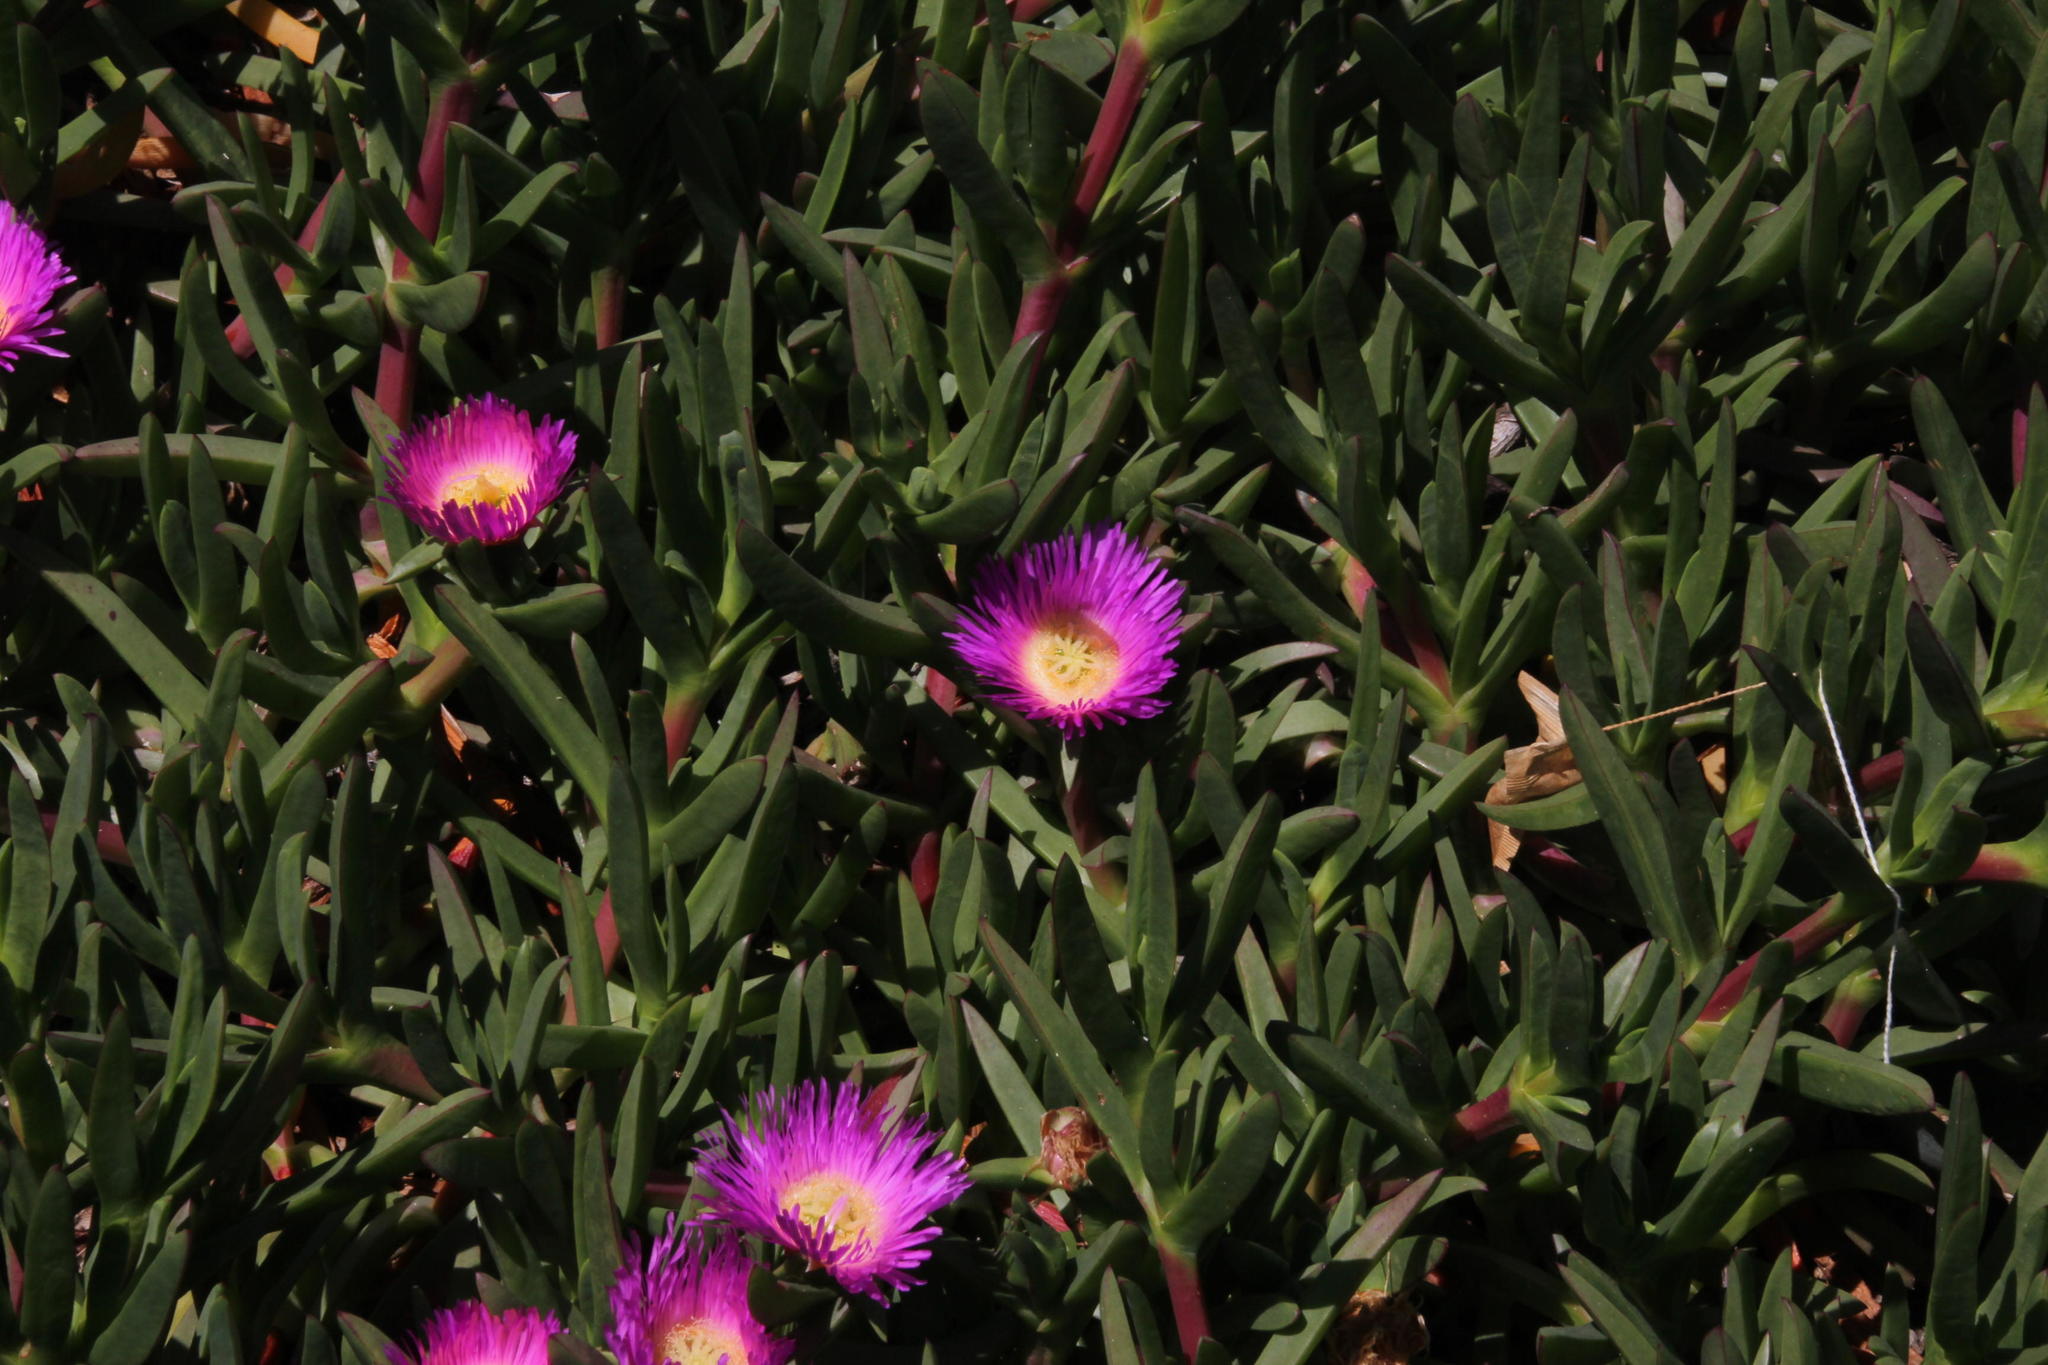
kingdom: Plantae
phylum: Tracheophyta
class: Magnoliopsida
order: Caryophyllales
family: Aizoaceae
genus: Carpobrotus
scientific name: Carpobrotus chilensis
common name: Sea fig
